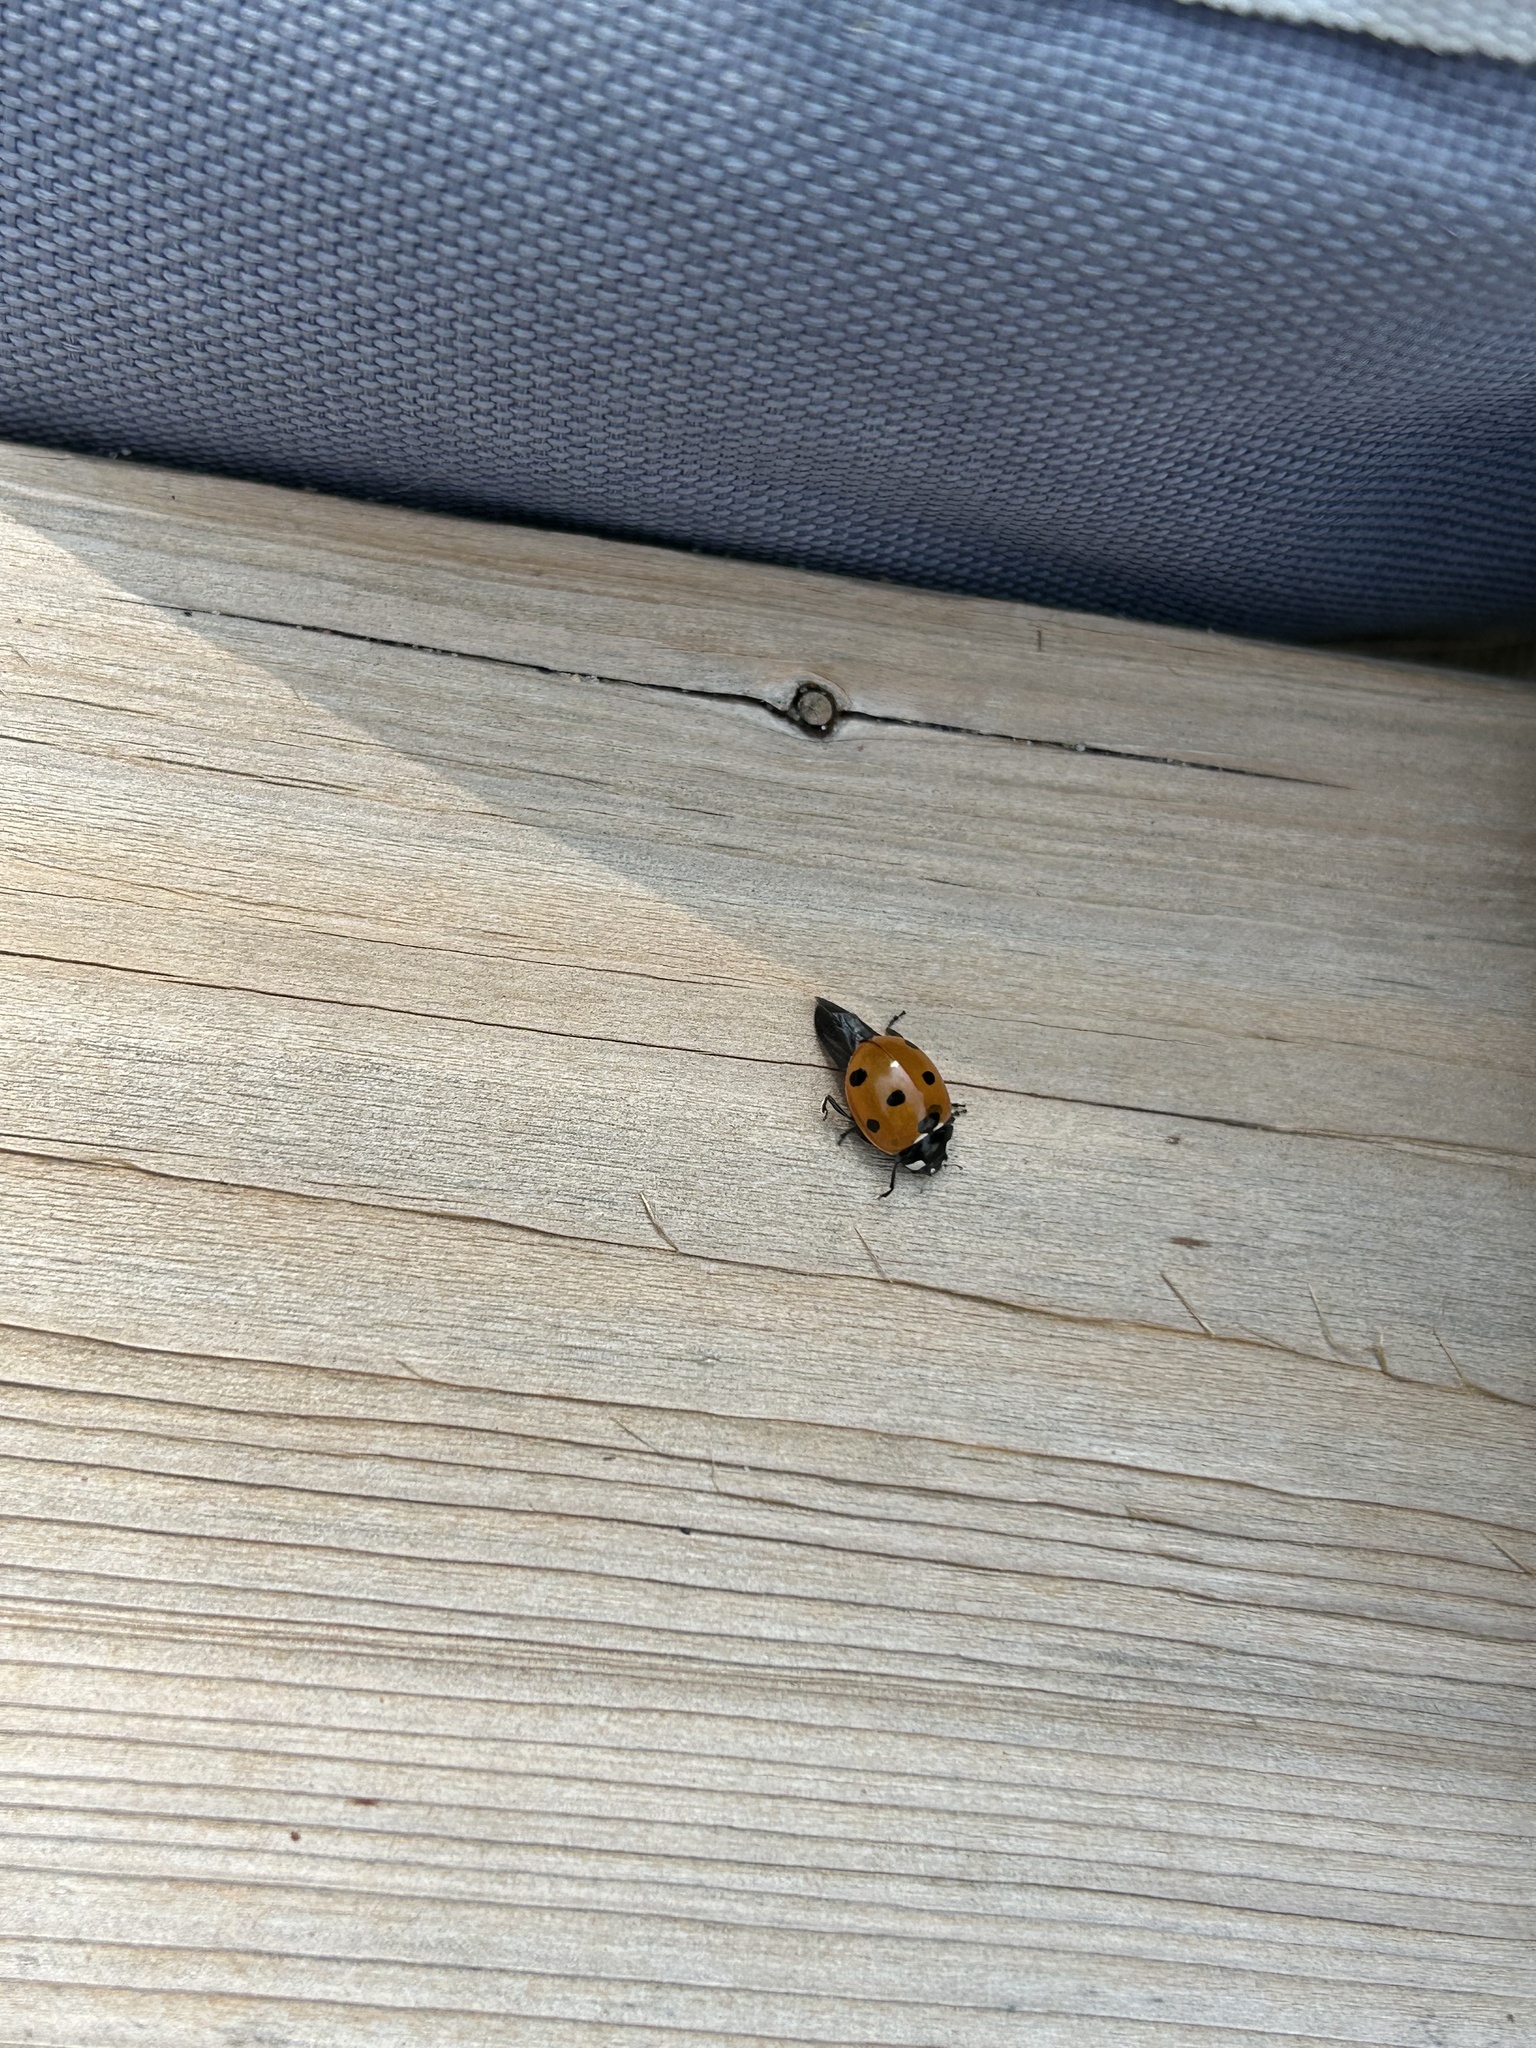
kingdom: Animalia
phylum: Arthropoda
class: Insecta
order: Coleoptera
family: Coccinellidae
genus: Coccinella
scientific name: Coccinella septempunctata
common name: Sevenspotted lady beetle
